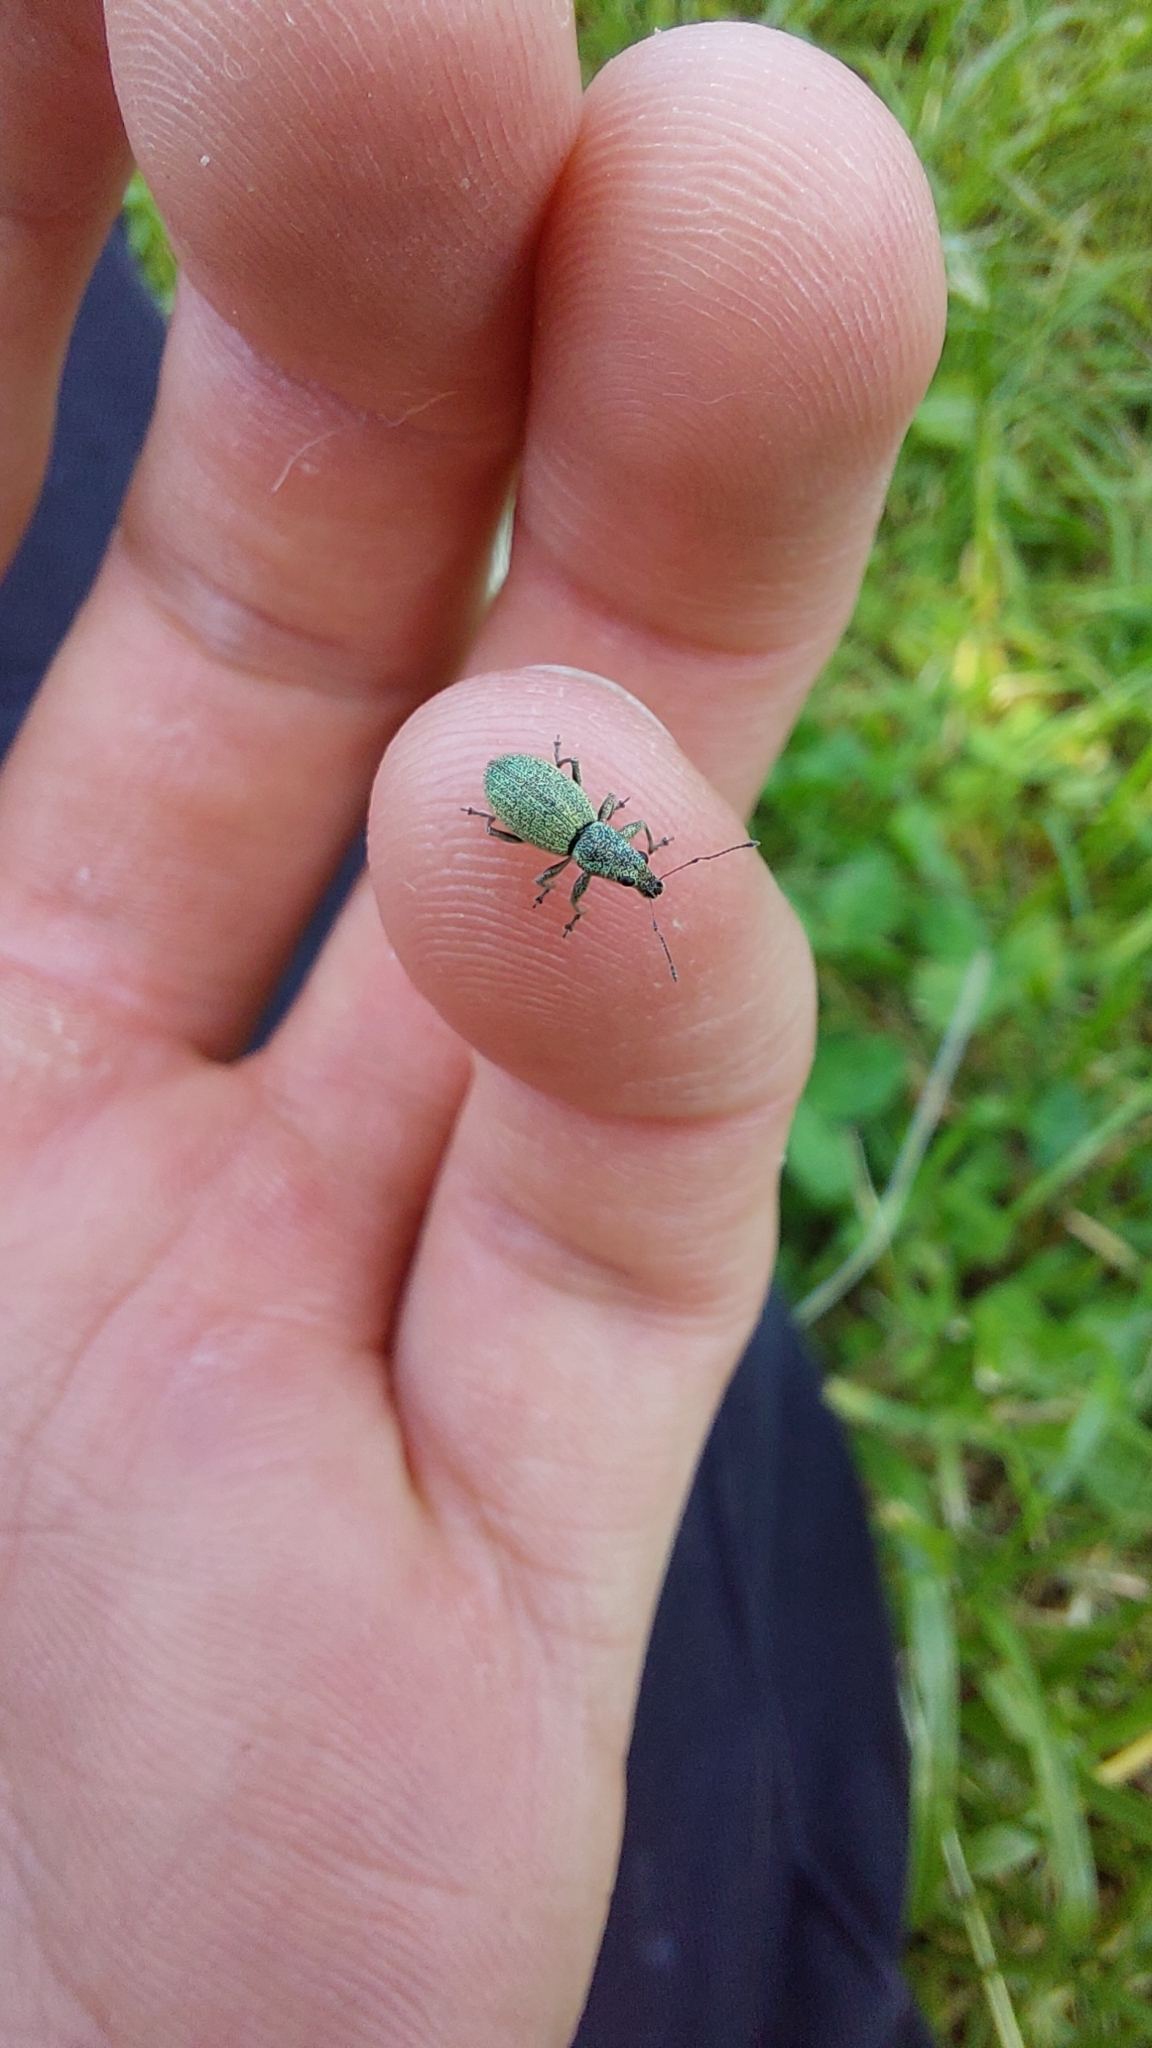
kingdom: Animalia
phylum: Arthropoda
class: Insecta
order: Coleoptera
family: Curculionidae
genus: Eusomus
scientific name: Eusomus ovulum
